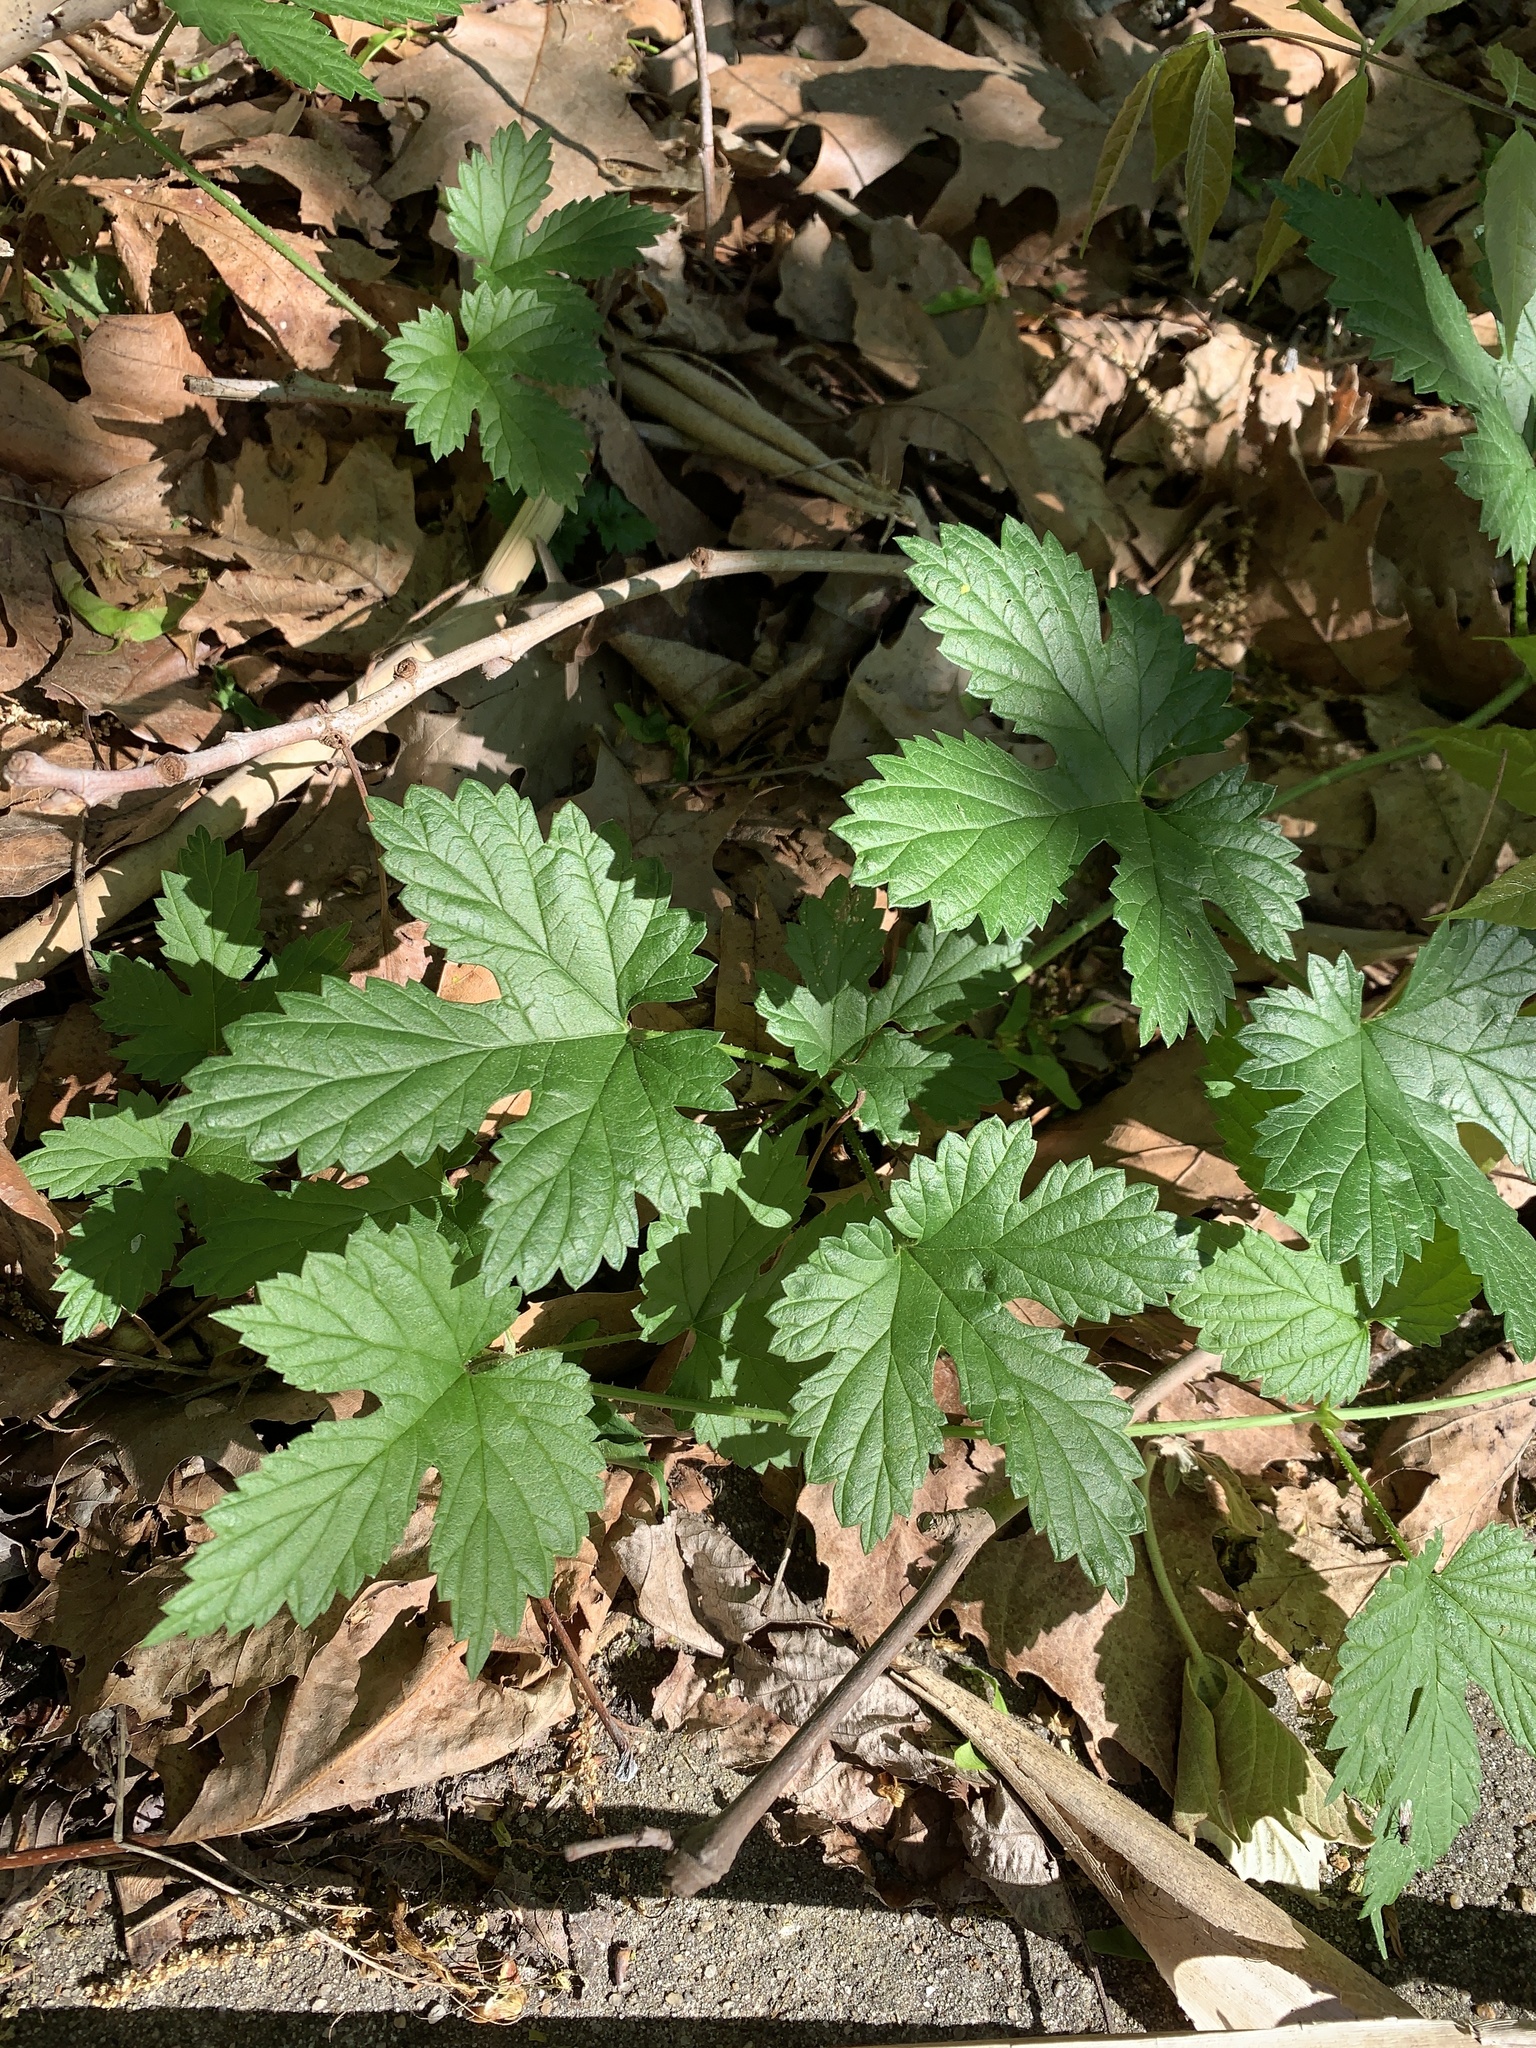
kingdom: Plantae
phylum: Tracheophyta
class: Magnoliopsida
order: Rosales
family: Cannabaceae
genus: Humulus
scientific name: Humulus lupulus
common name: Hop
